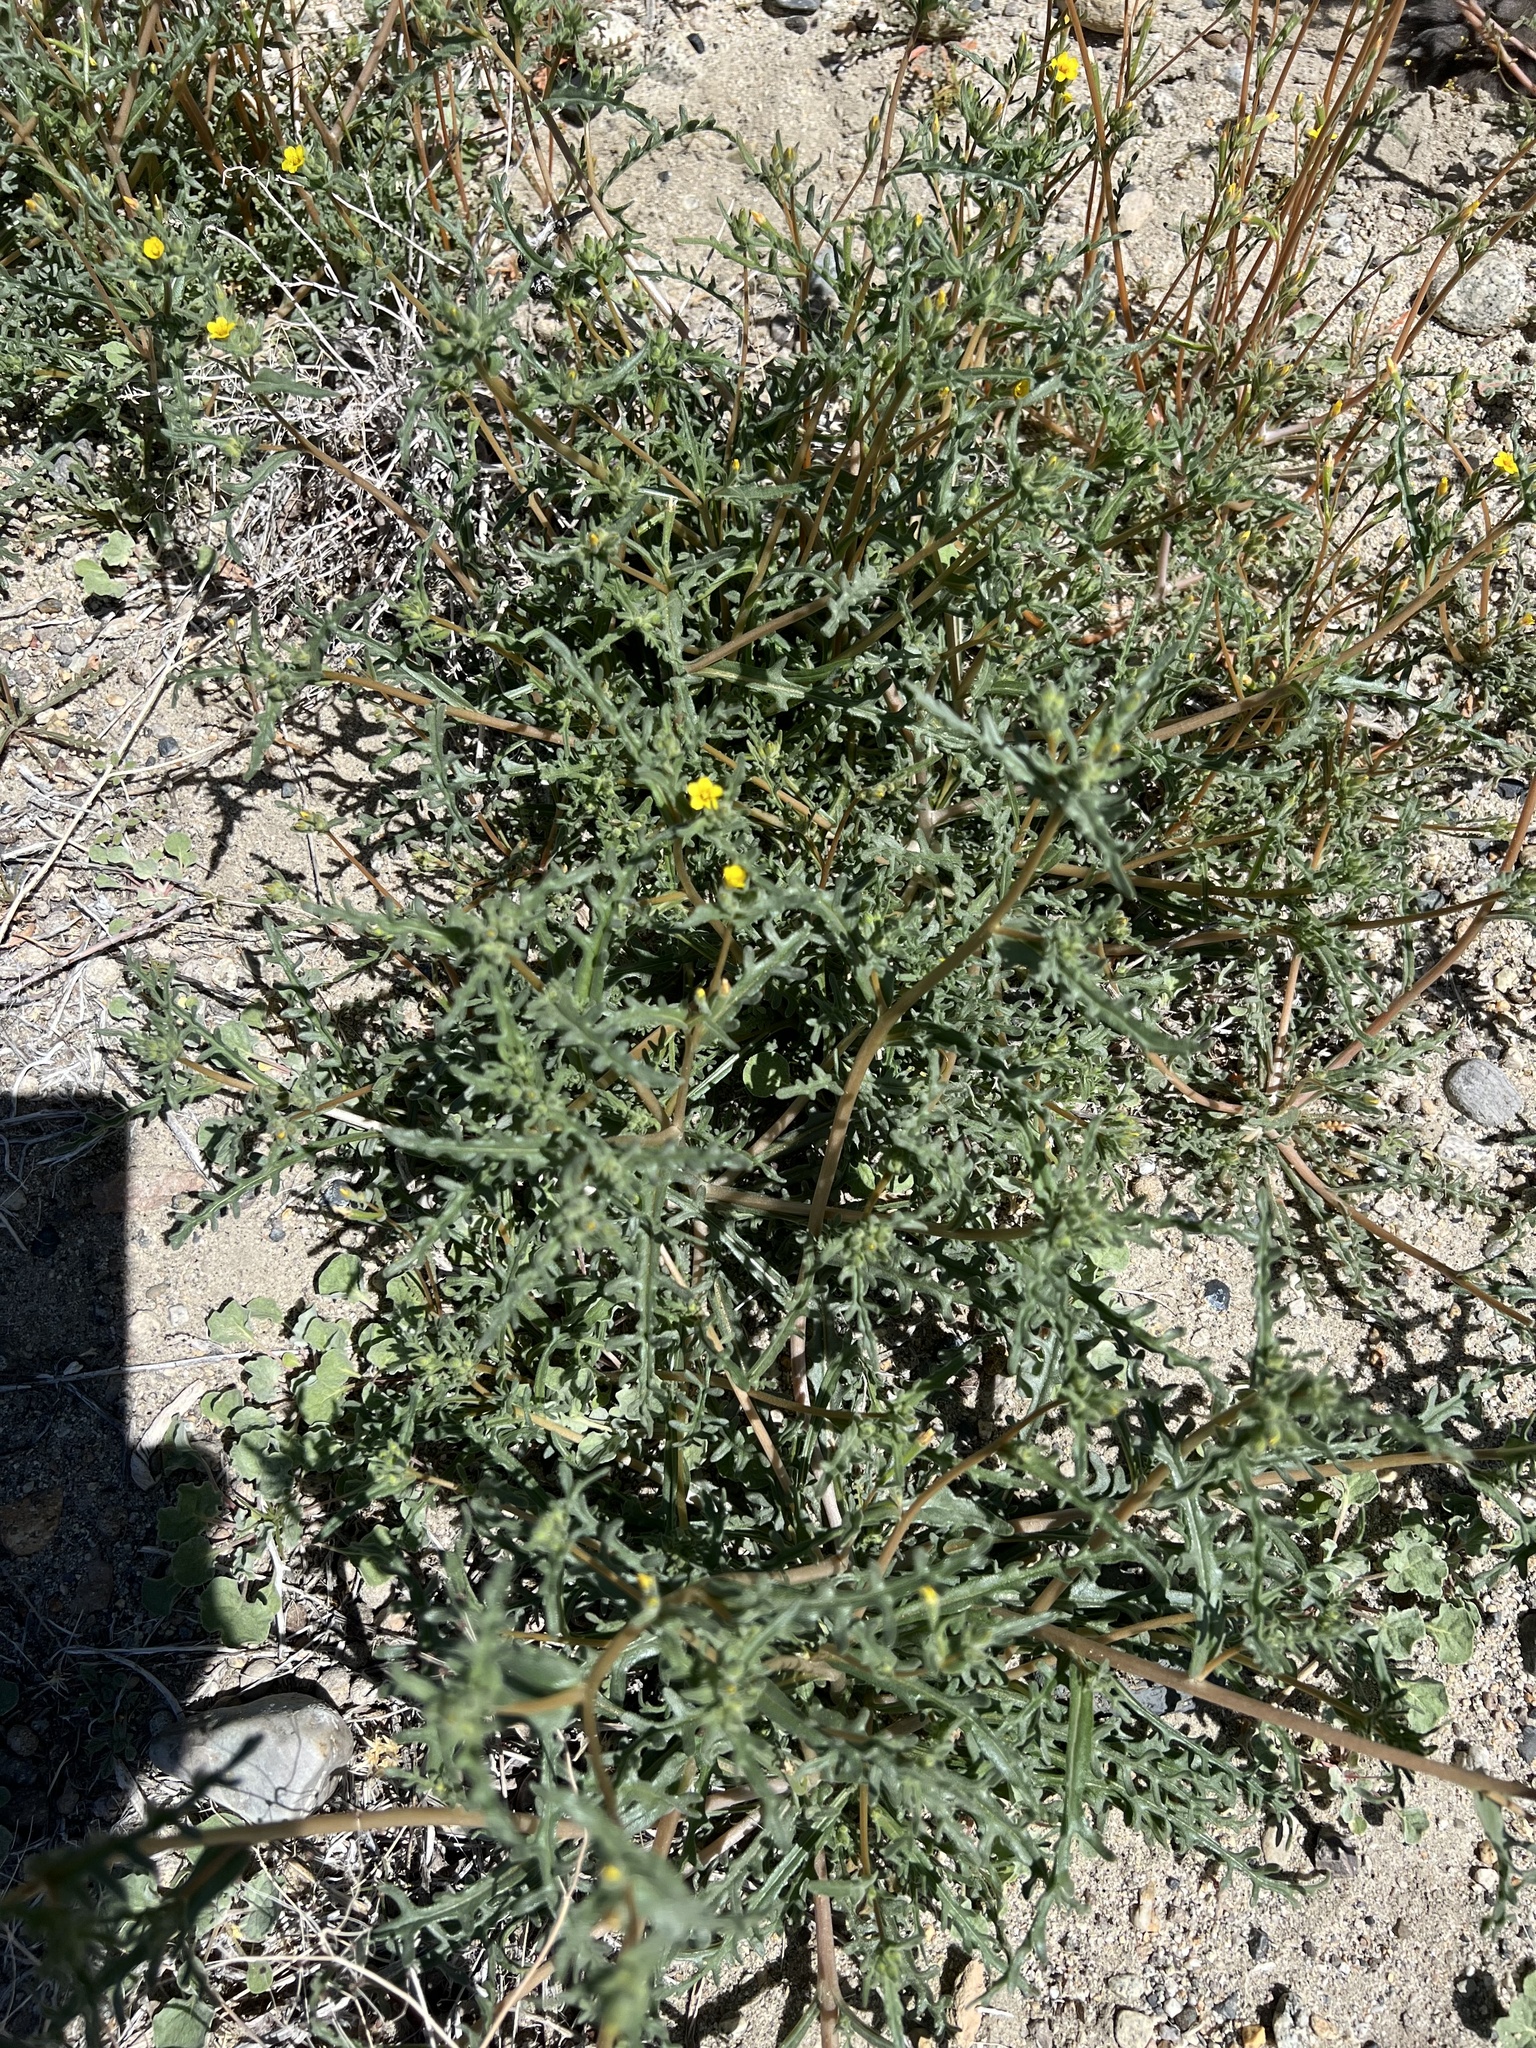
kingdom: Plantae
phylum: Tracheophyta
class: Magnoliopsida
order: Cornales
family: Loasaceae
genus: Mentzelia
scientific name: Mentzelia albicaulis
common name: White-stem blazingstar
